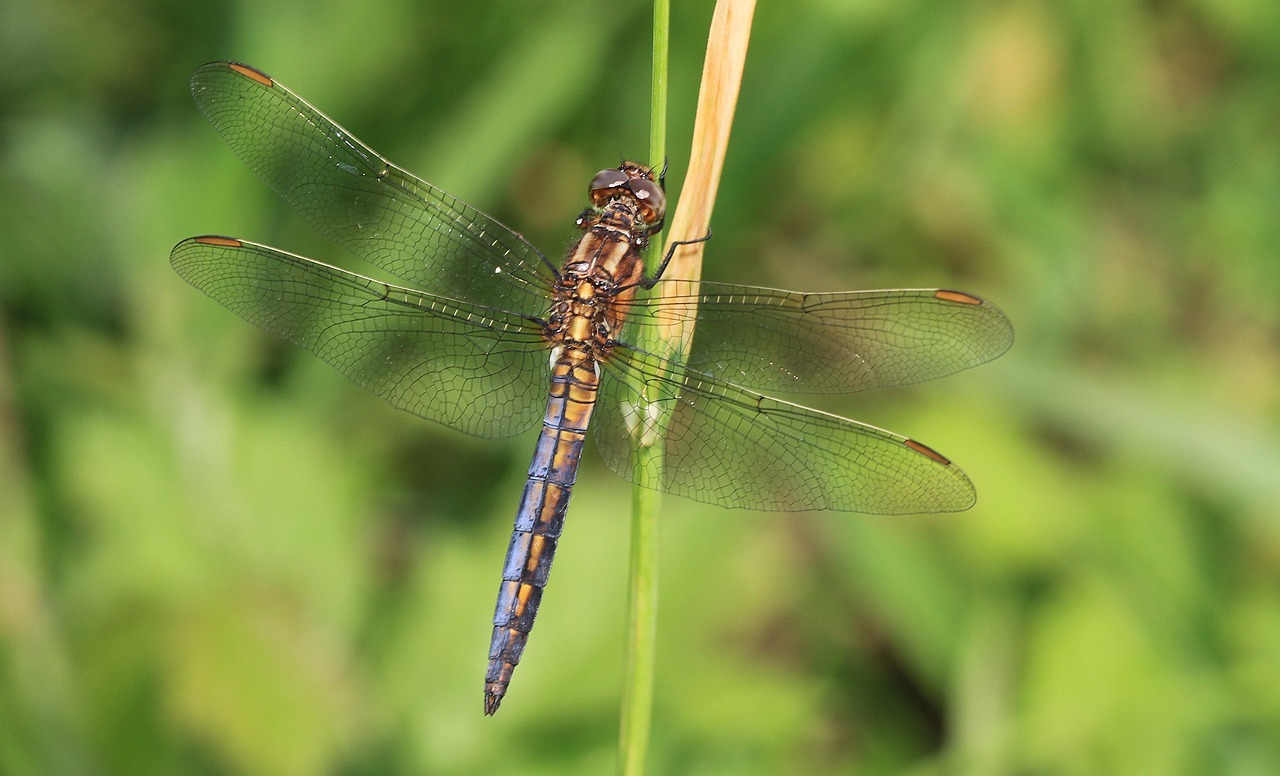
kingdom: Animalia
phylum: Arthropoda
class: Insecta
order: Odonata
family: Libellulidae
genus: Orthetrum
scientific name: Orthetrum coerulescens
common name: Keeled skimmer
